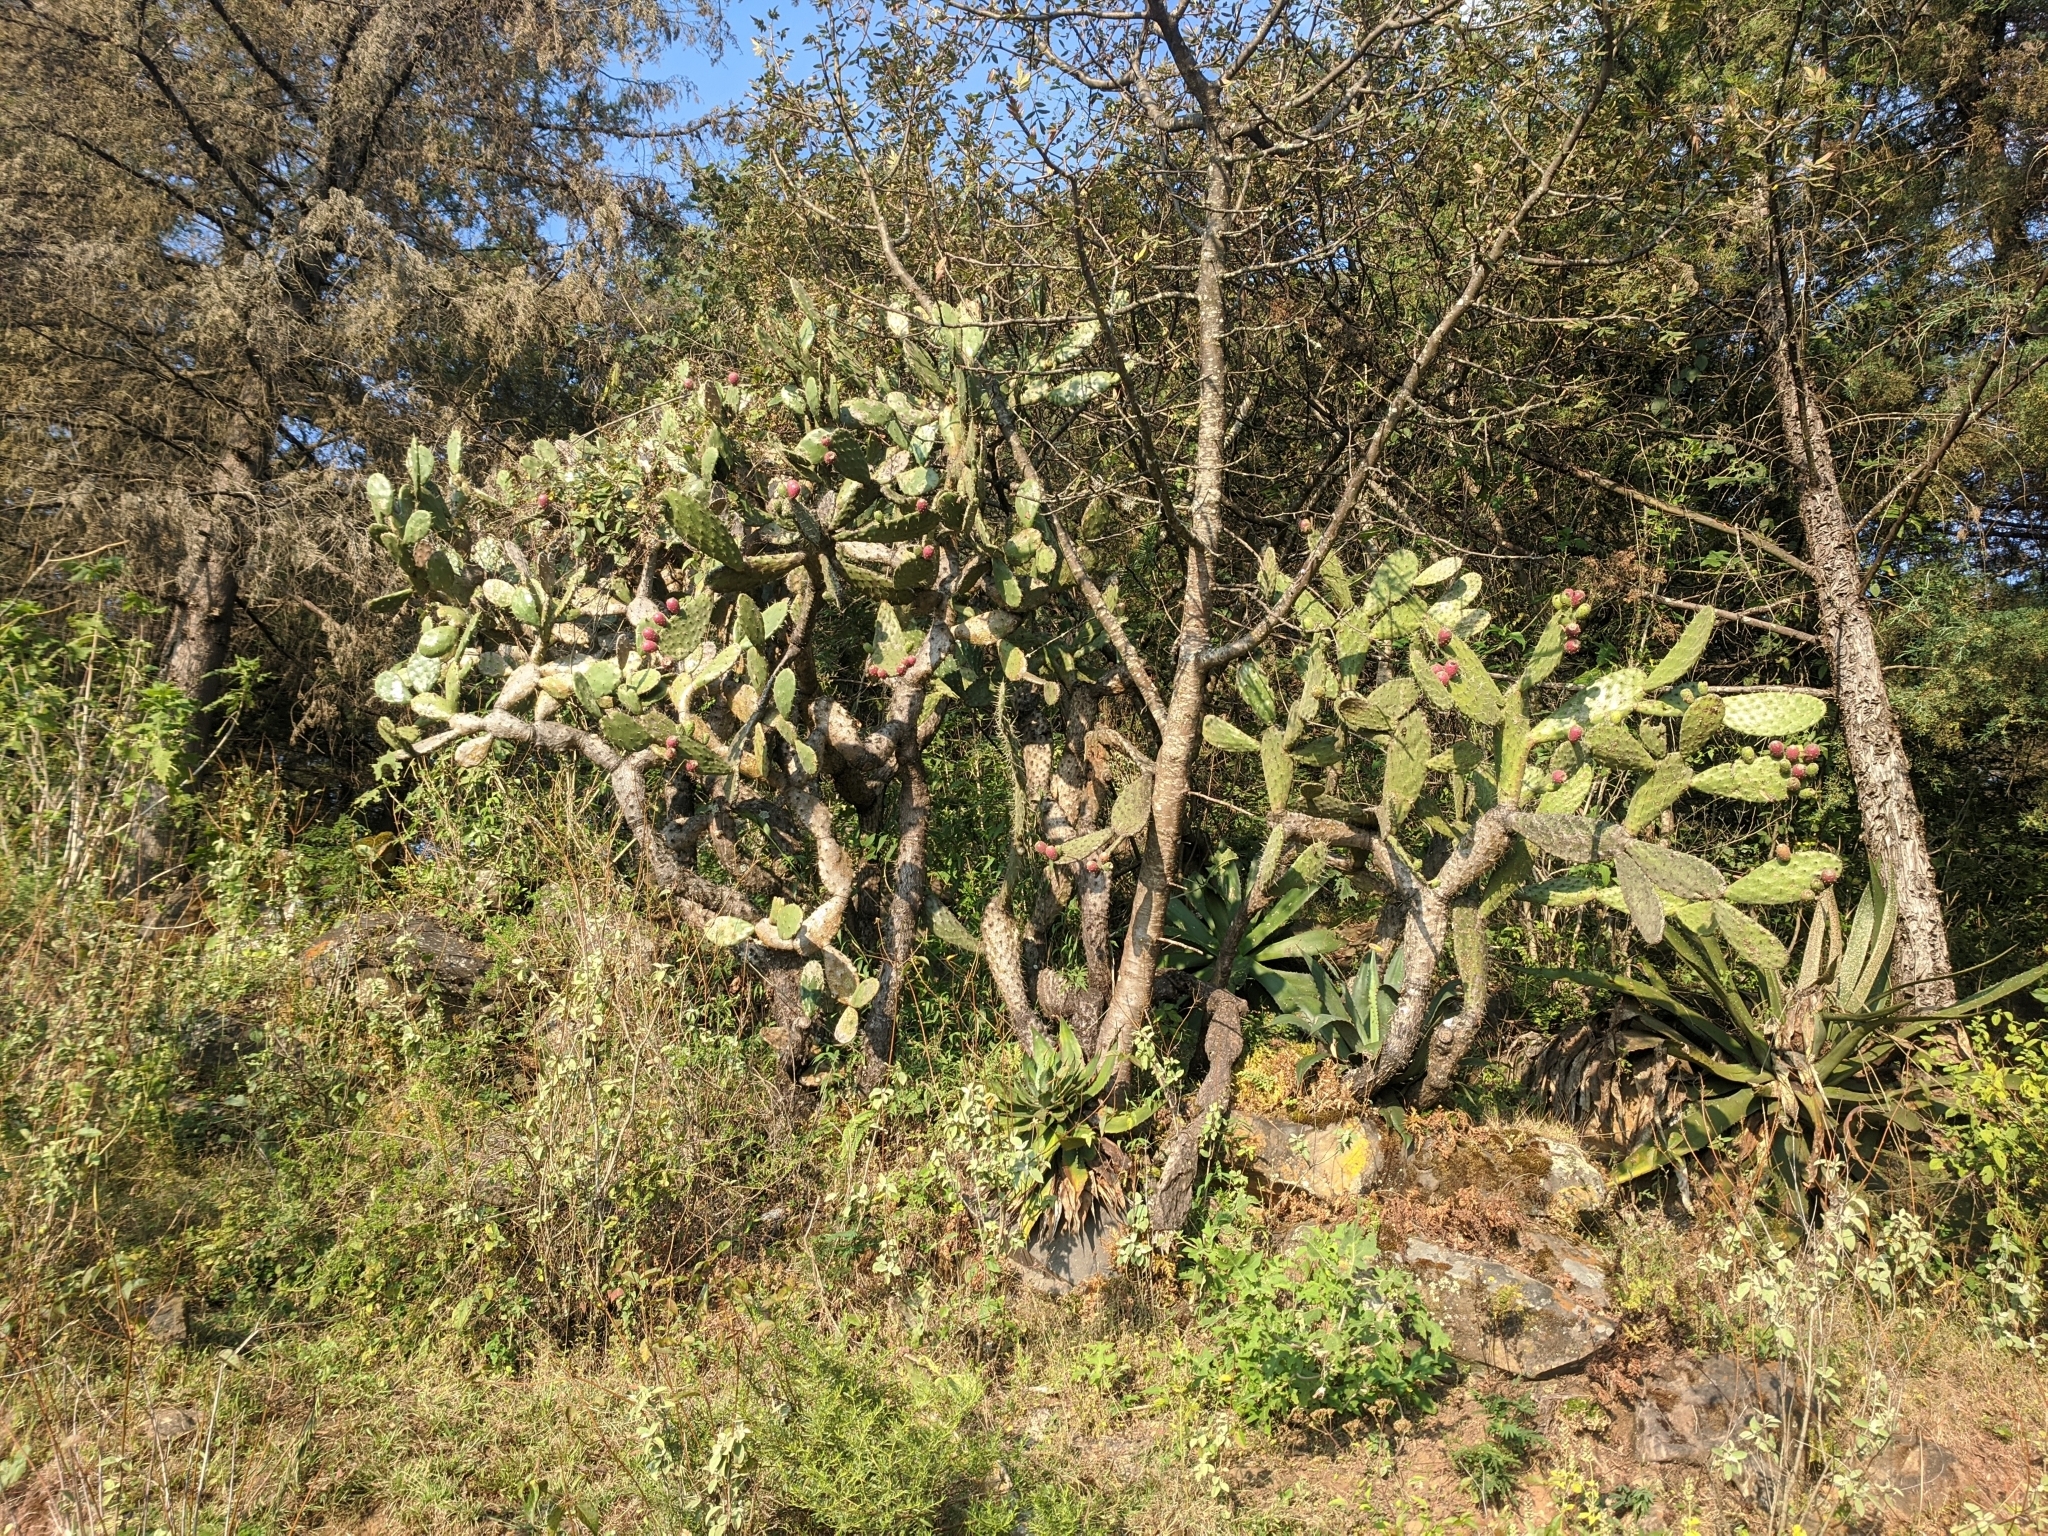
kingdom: Plantae
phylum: Tracheophyta
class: Magnoliopsida
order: Caryophyllales
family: Cactaceae
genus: Opuntia
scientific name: Opuntia tomentosa
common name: Woollyjoint pricklypear
